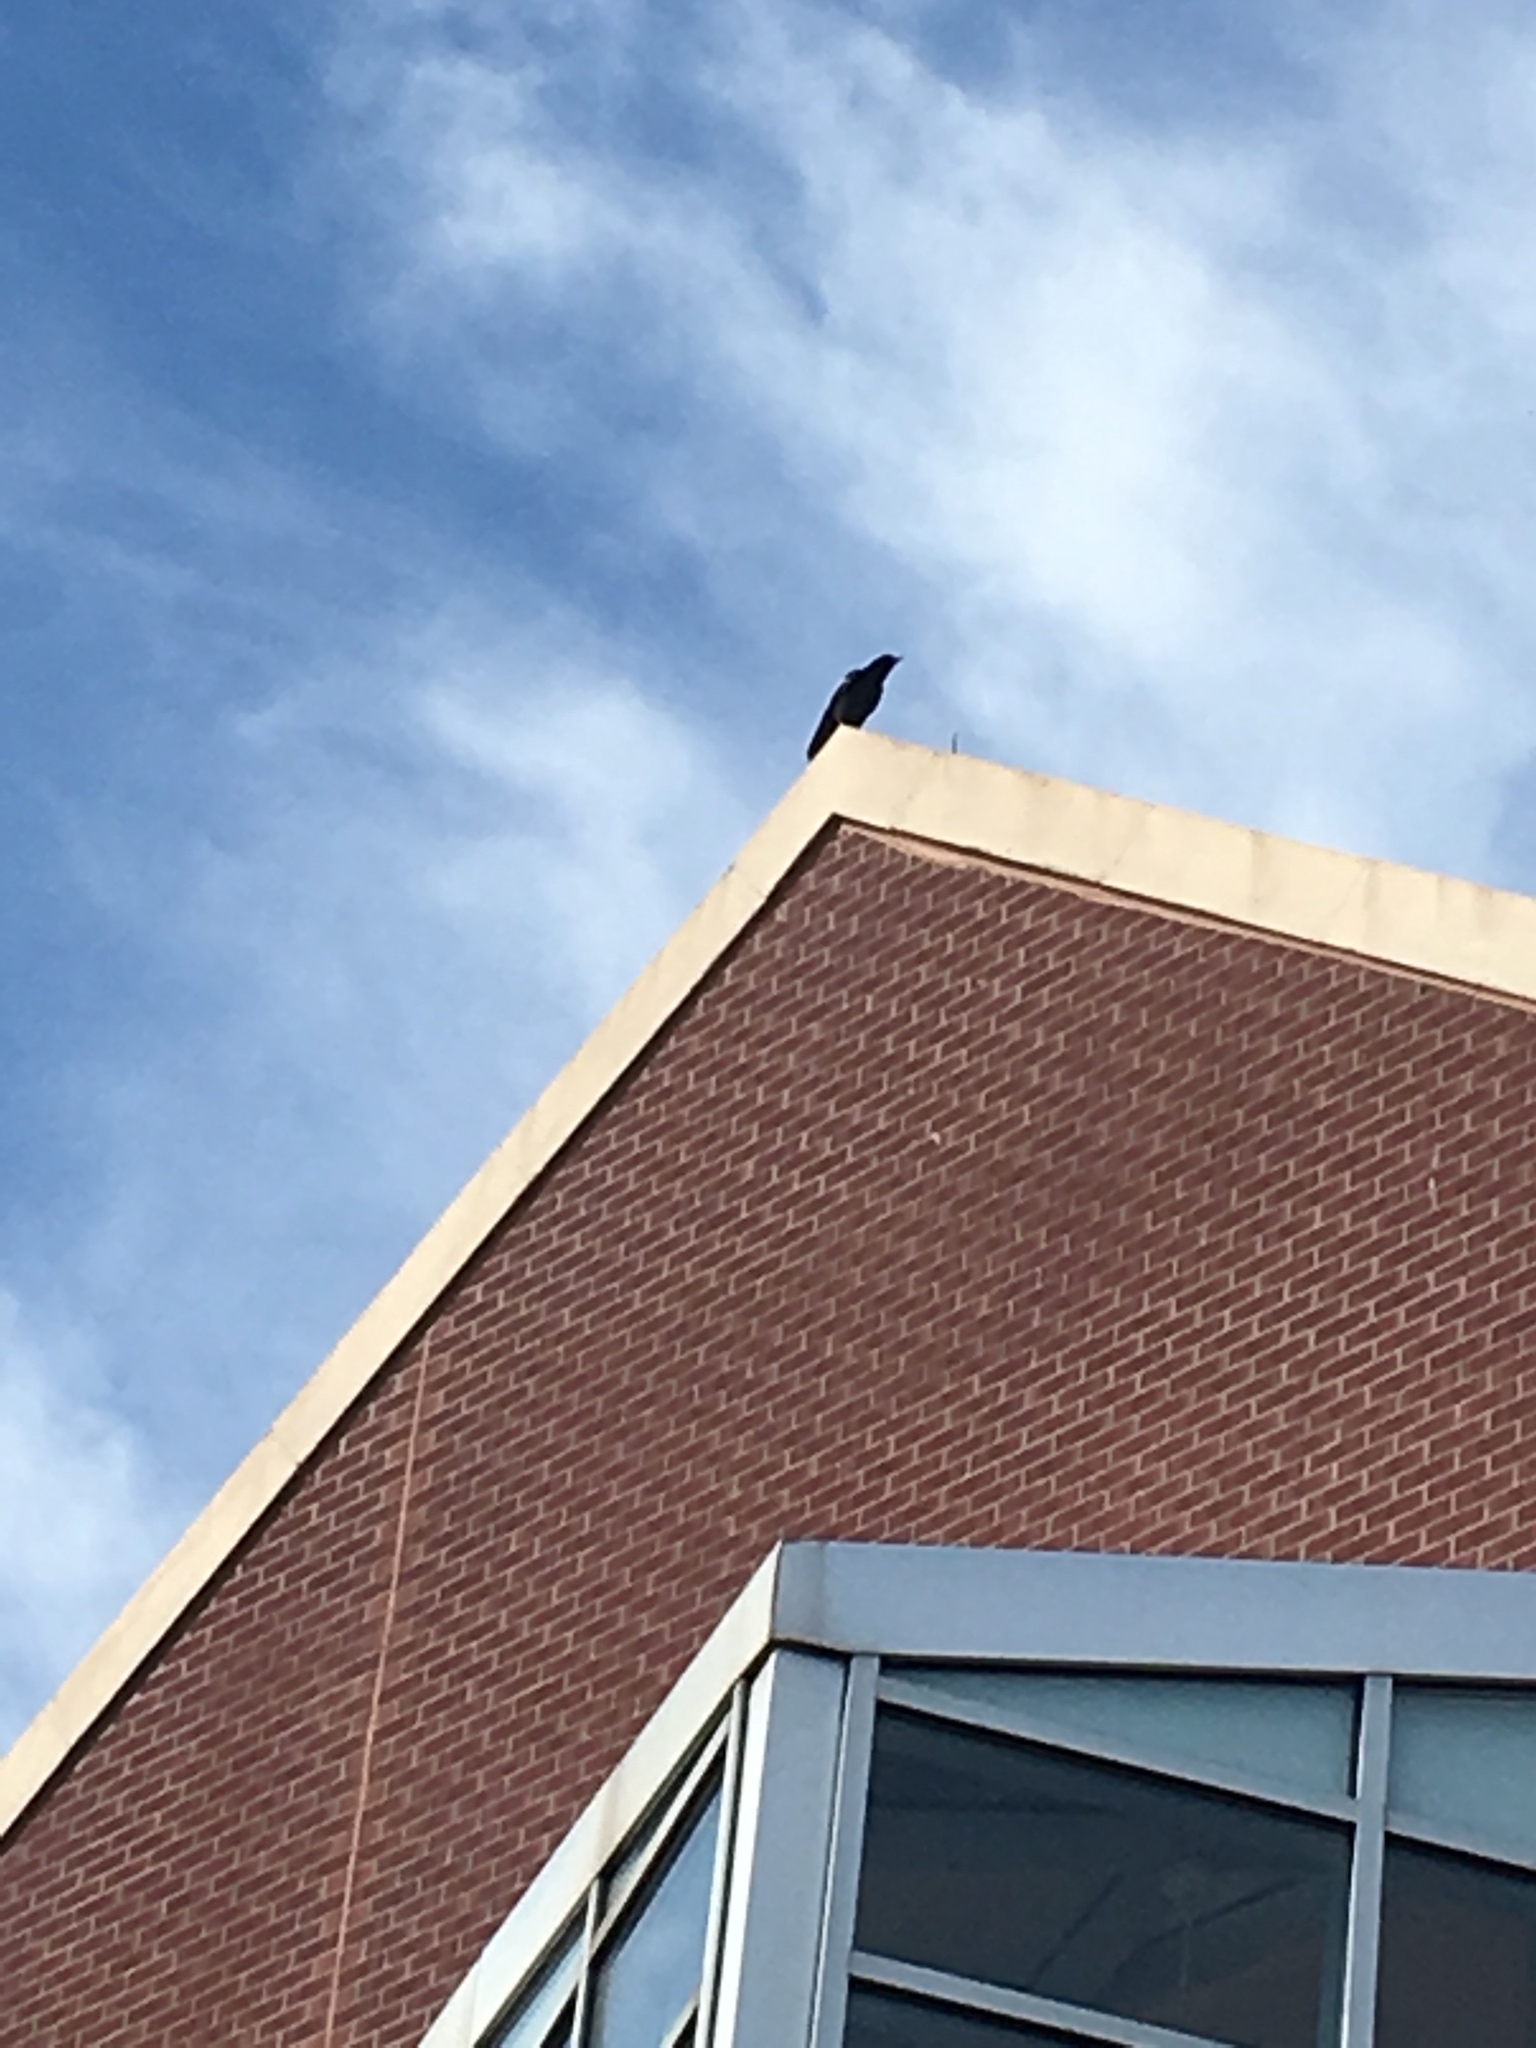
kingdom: Animalia
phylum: Chordata
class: Aves
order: Passeriformes
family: Corvidae
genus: Corvus
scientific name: Corvus brachyrhynchos
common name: American crow
